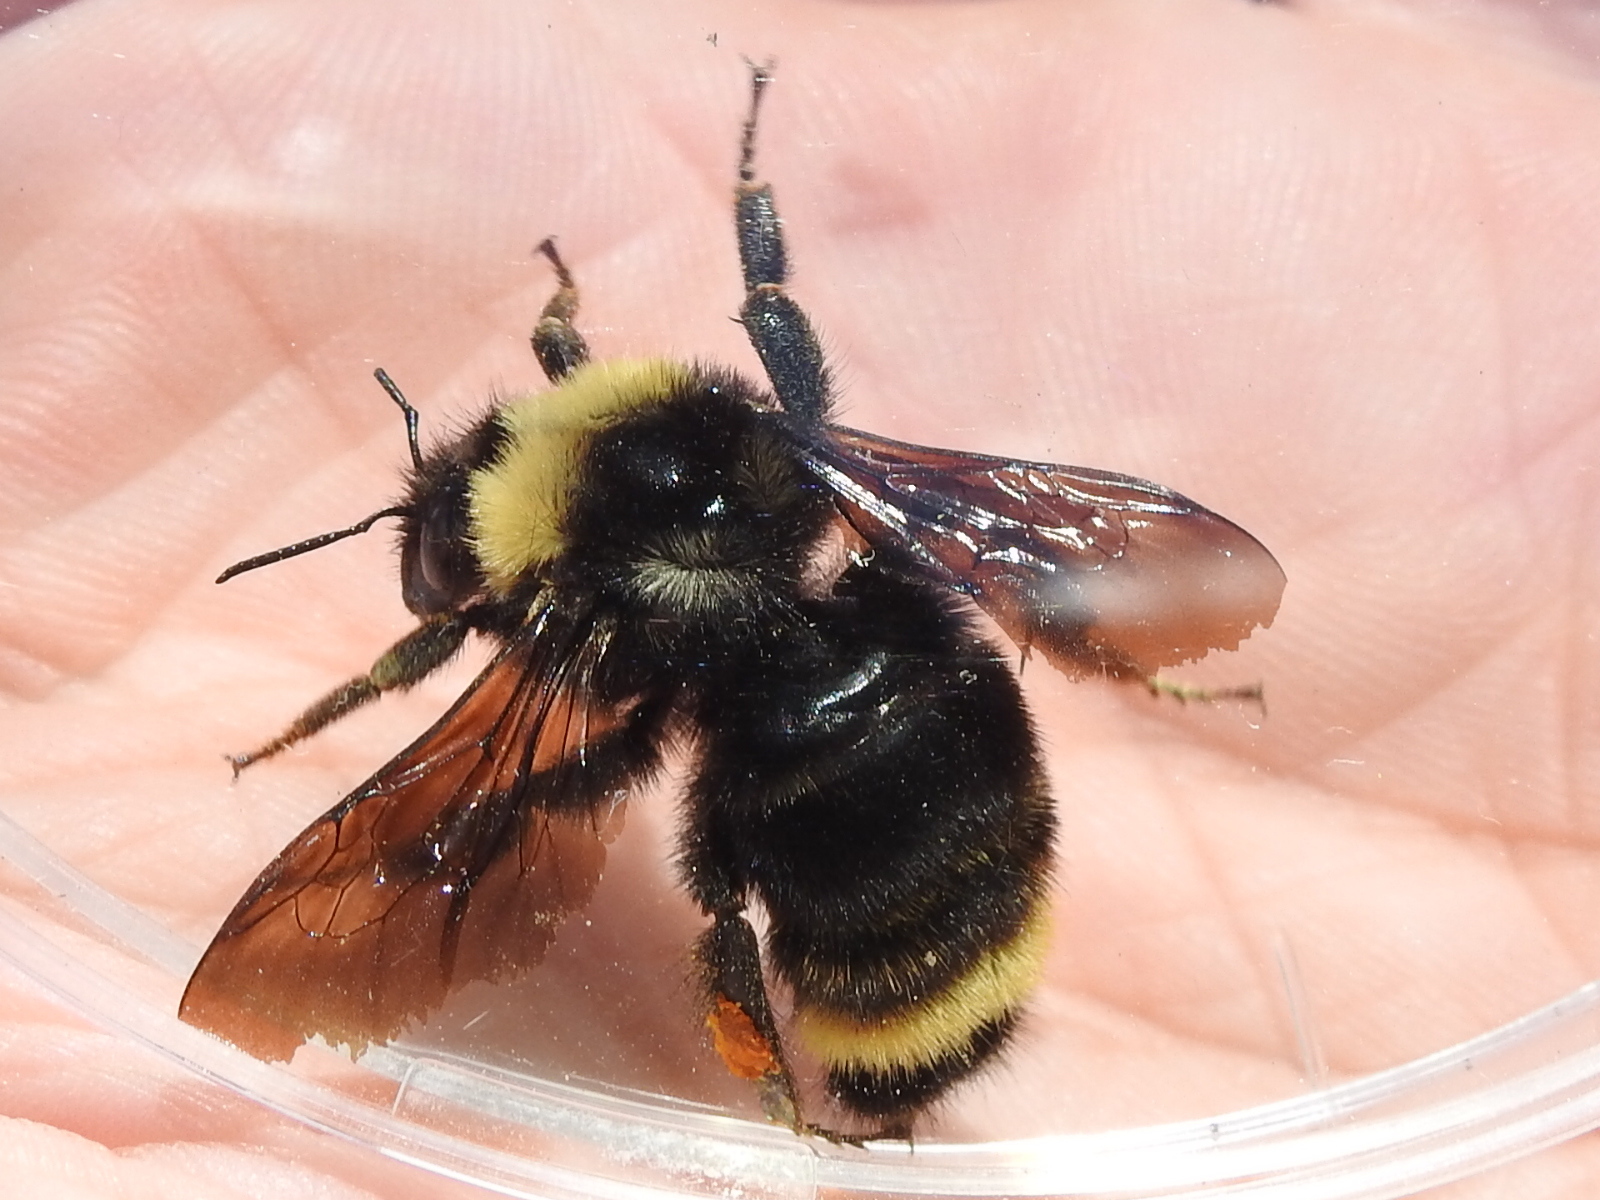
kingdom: Animalia
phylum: Arthropoda
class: Insecta
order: Hymenoptera
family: Apidae
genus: Bombus
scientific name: Bombus californicus
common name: California bumble bee
